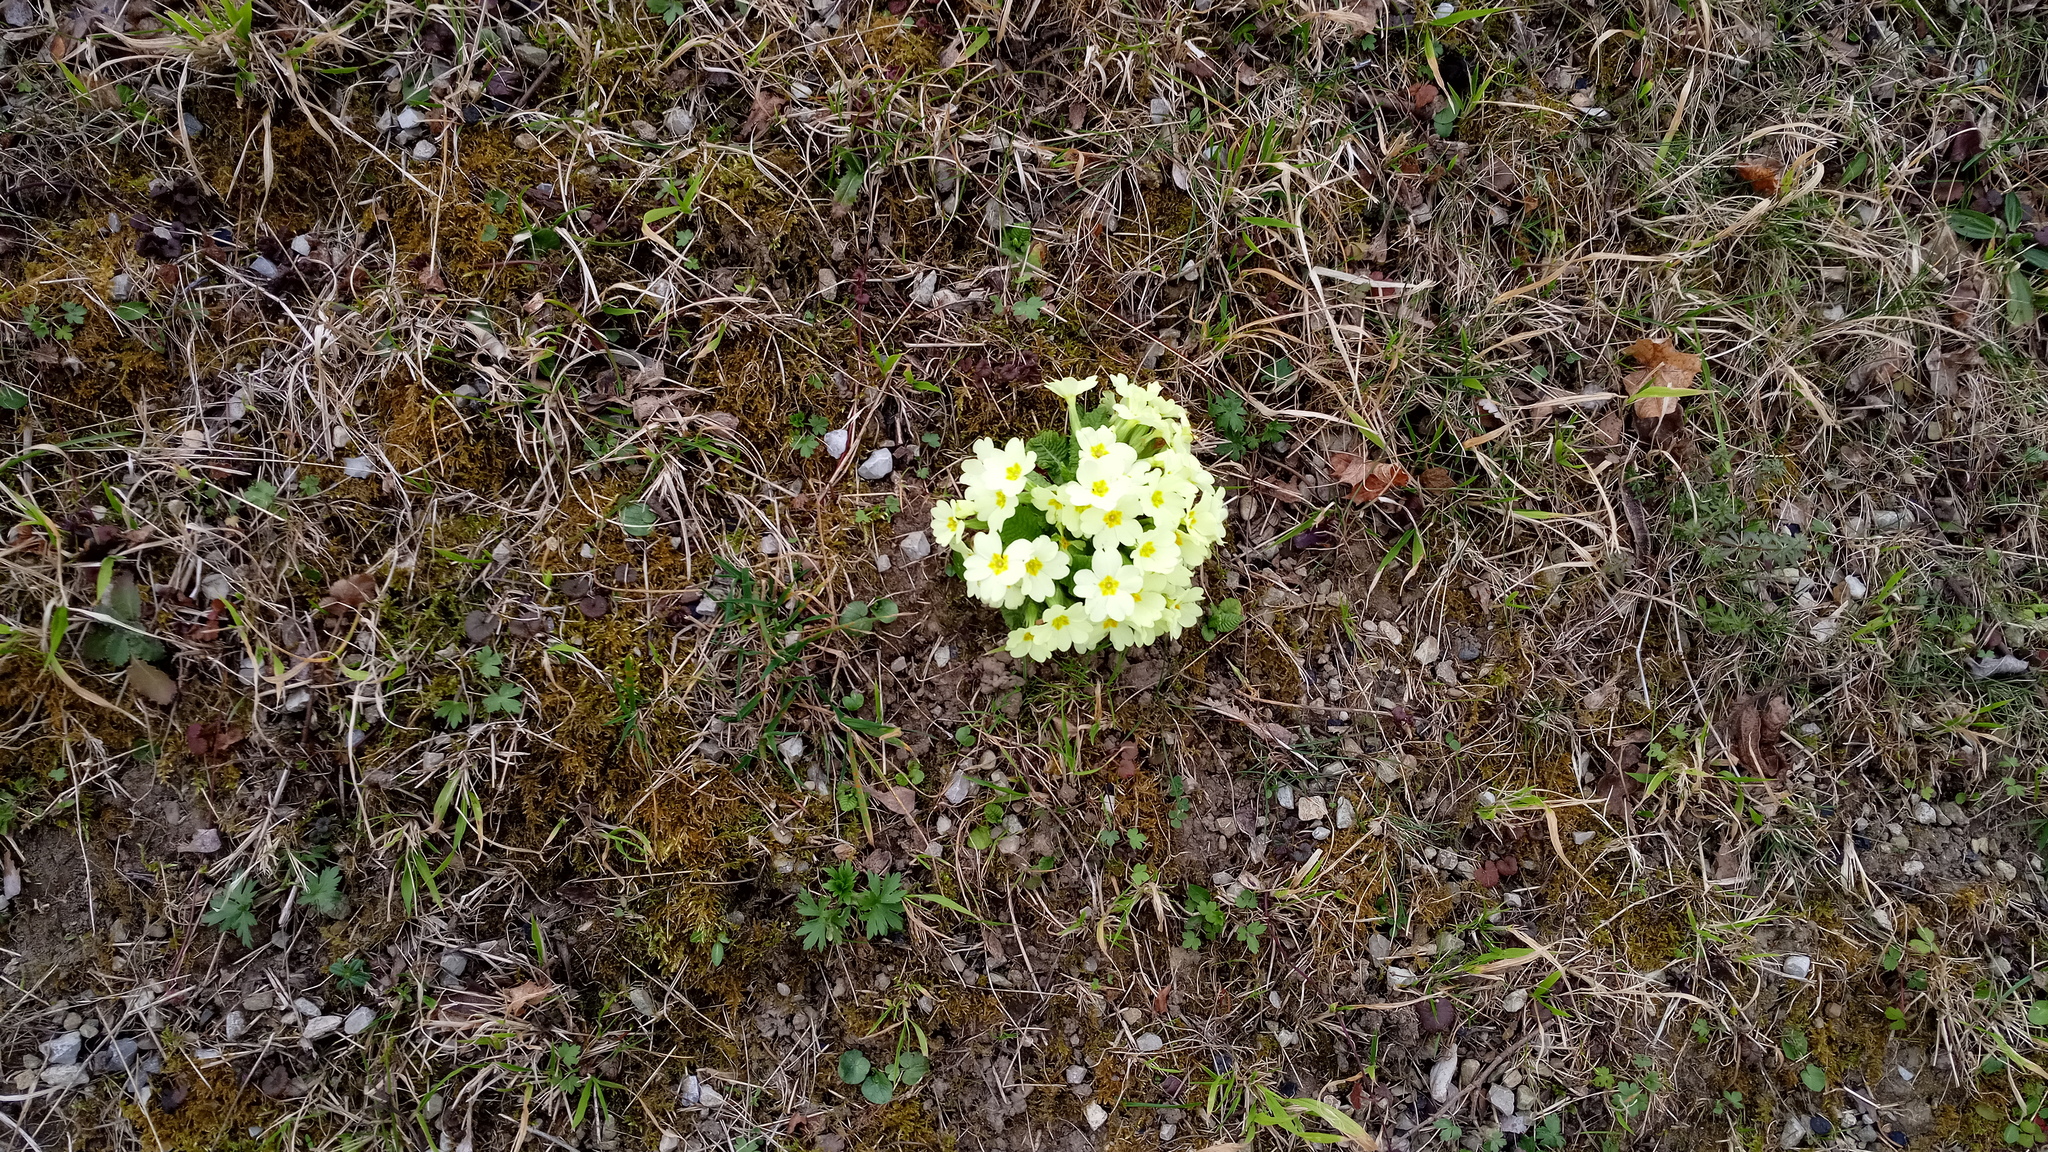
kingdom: Plantae
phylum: Tracheophyta
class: Magnoliopsida
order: Ericales
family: Primulaceae
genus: Primula
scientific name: Primula vulgaris
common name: Primrose
